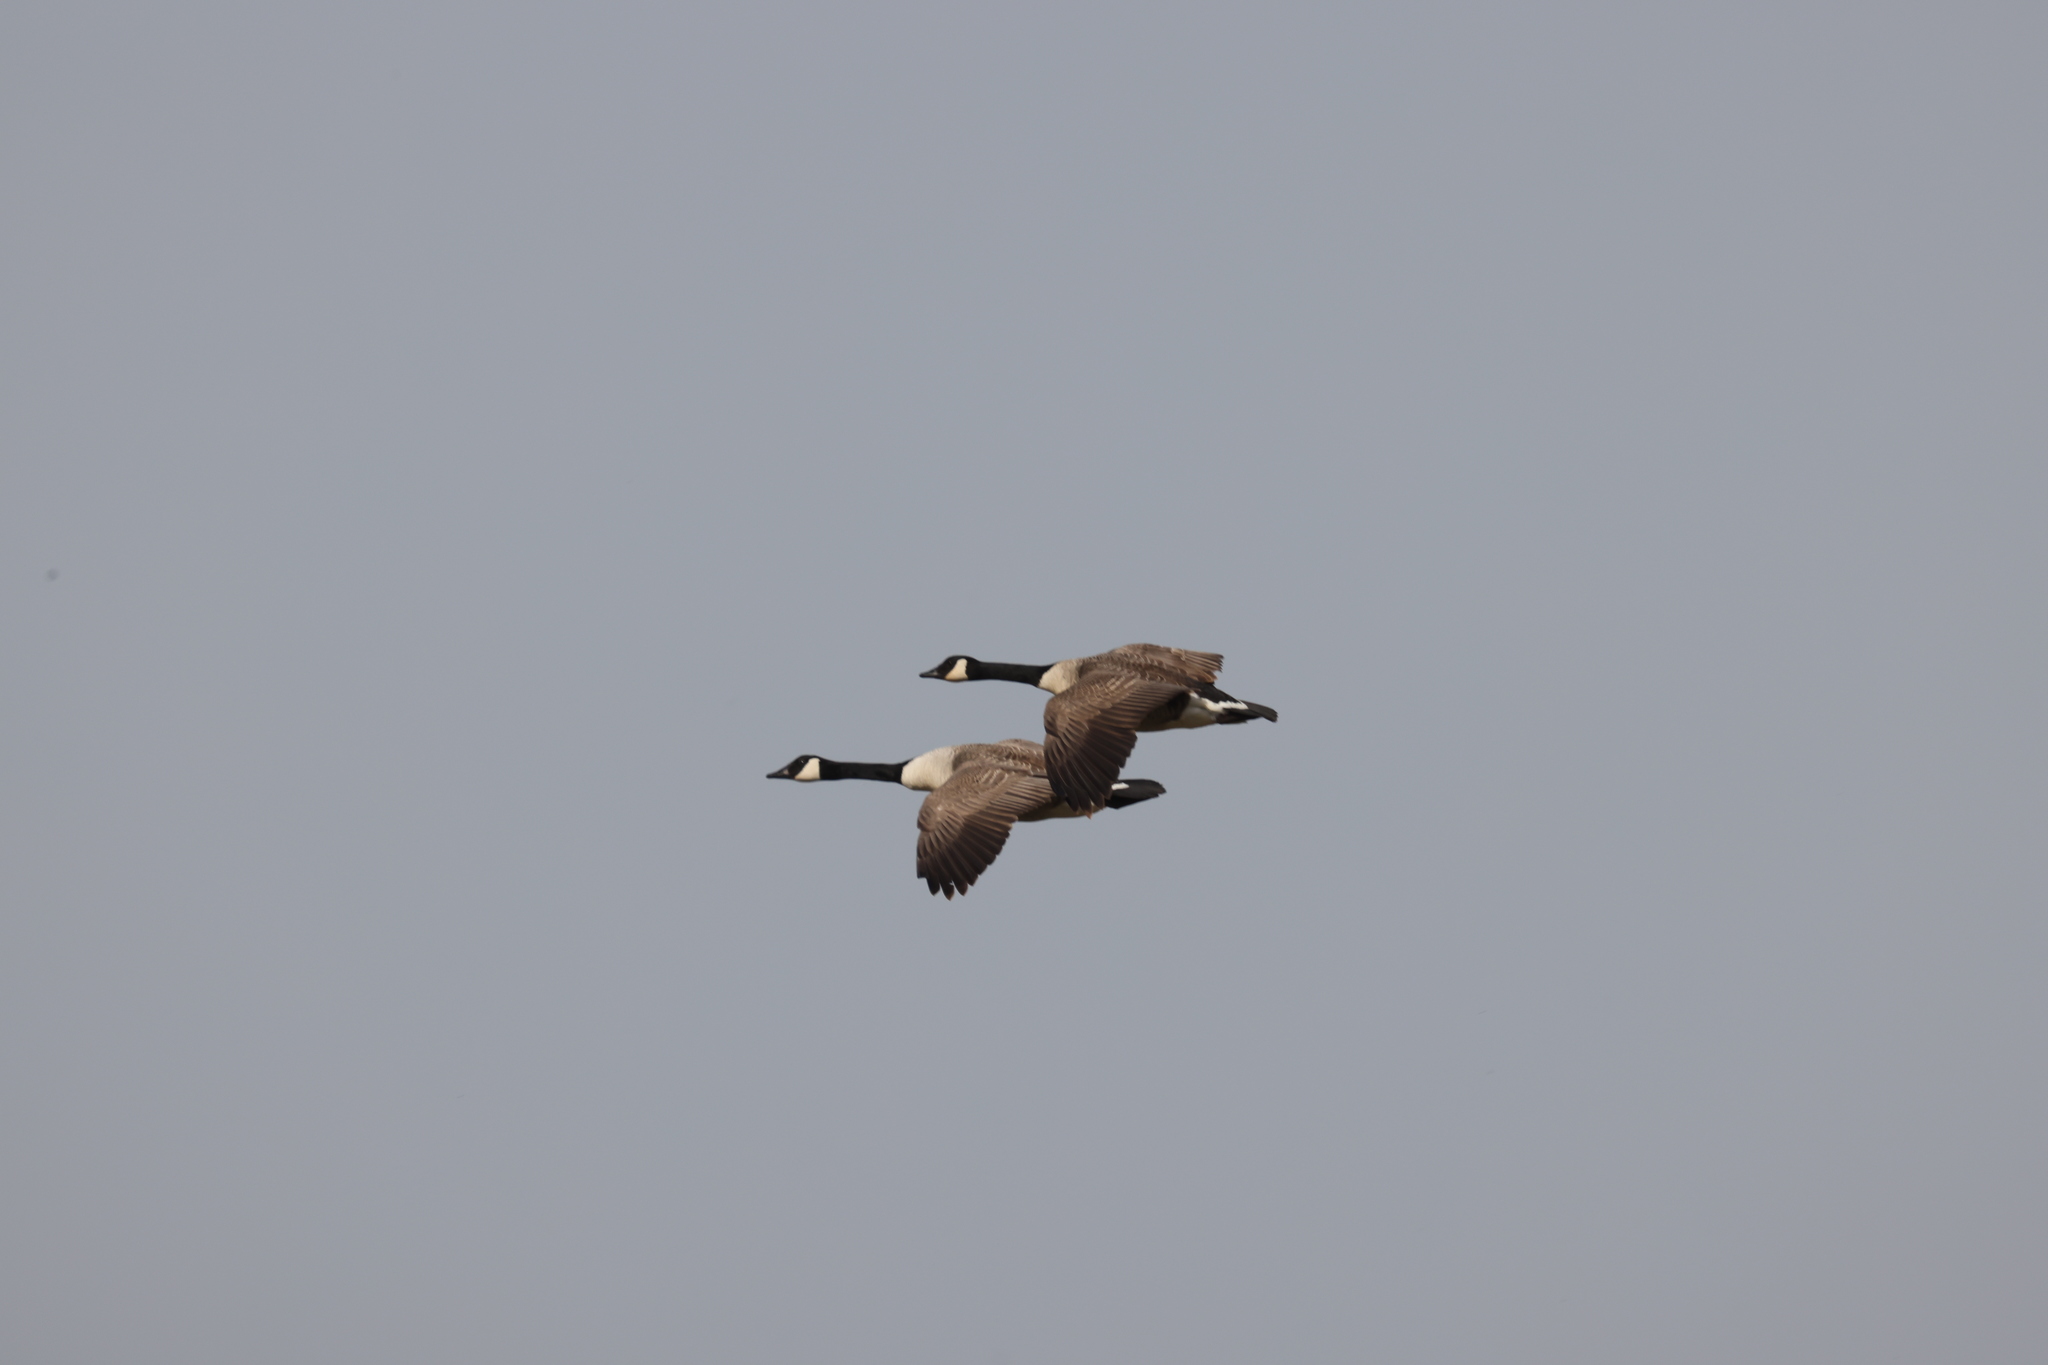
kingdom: Animalia
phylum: Chordata
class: Aves
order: Anseriformes
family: Anatidae
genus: Branta
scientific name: Branta canadensis
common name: Canada goose
